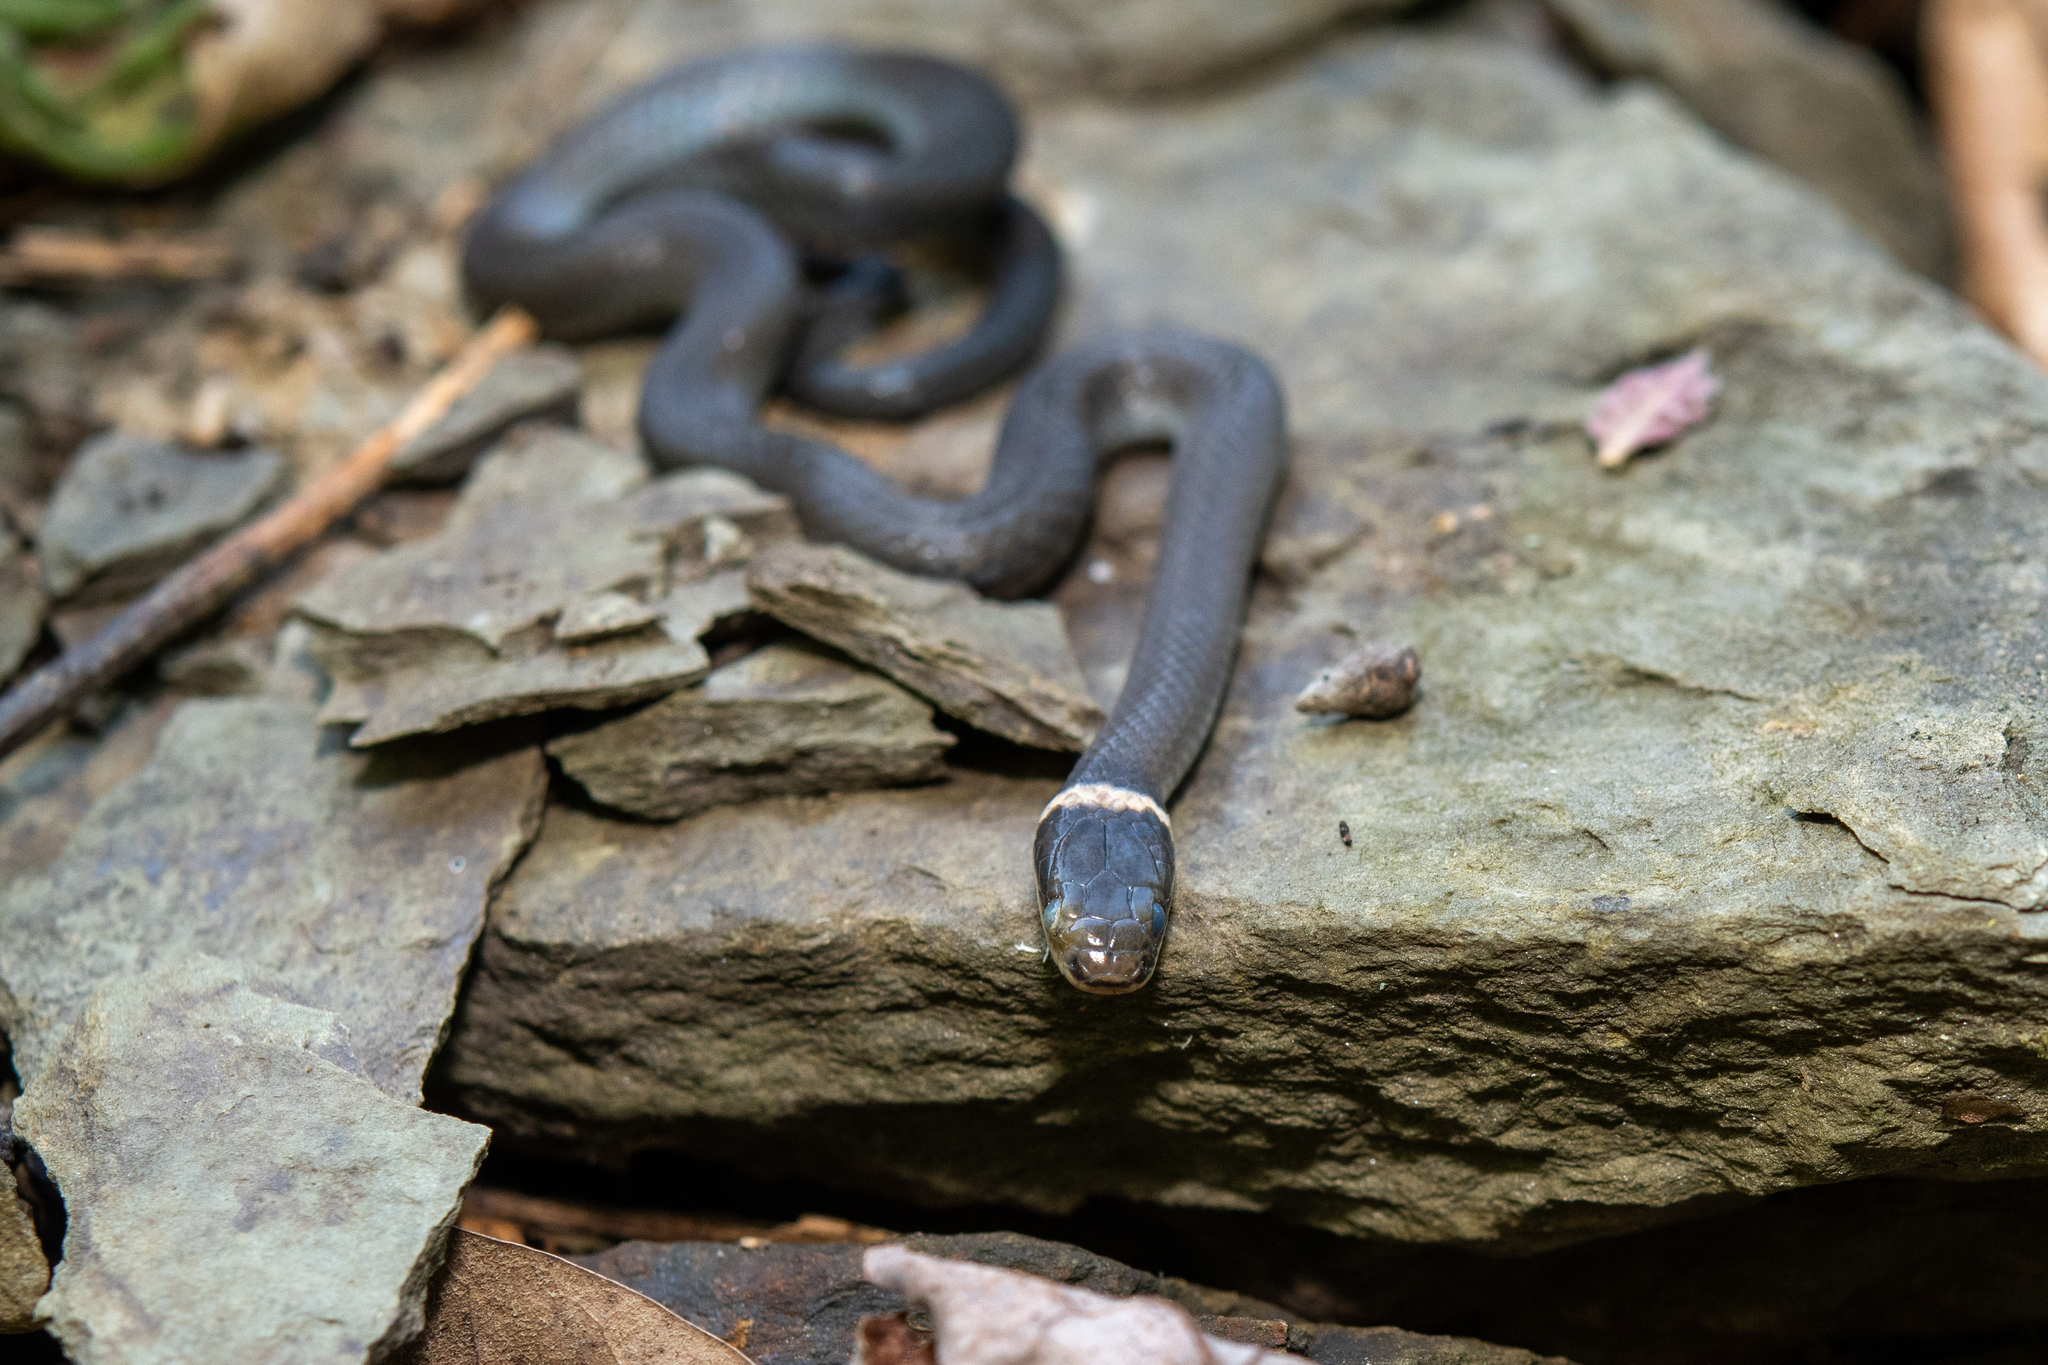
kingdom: Animalia
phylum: Chordata
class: Squamata
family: Colubridae
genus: Diadophis
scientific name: Diadophis punctatus
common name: Ringneck snake
